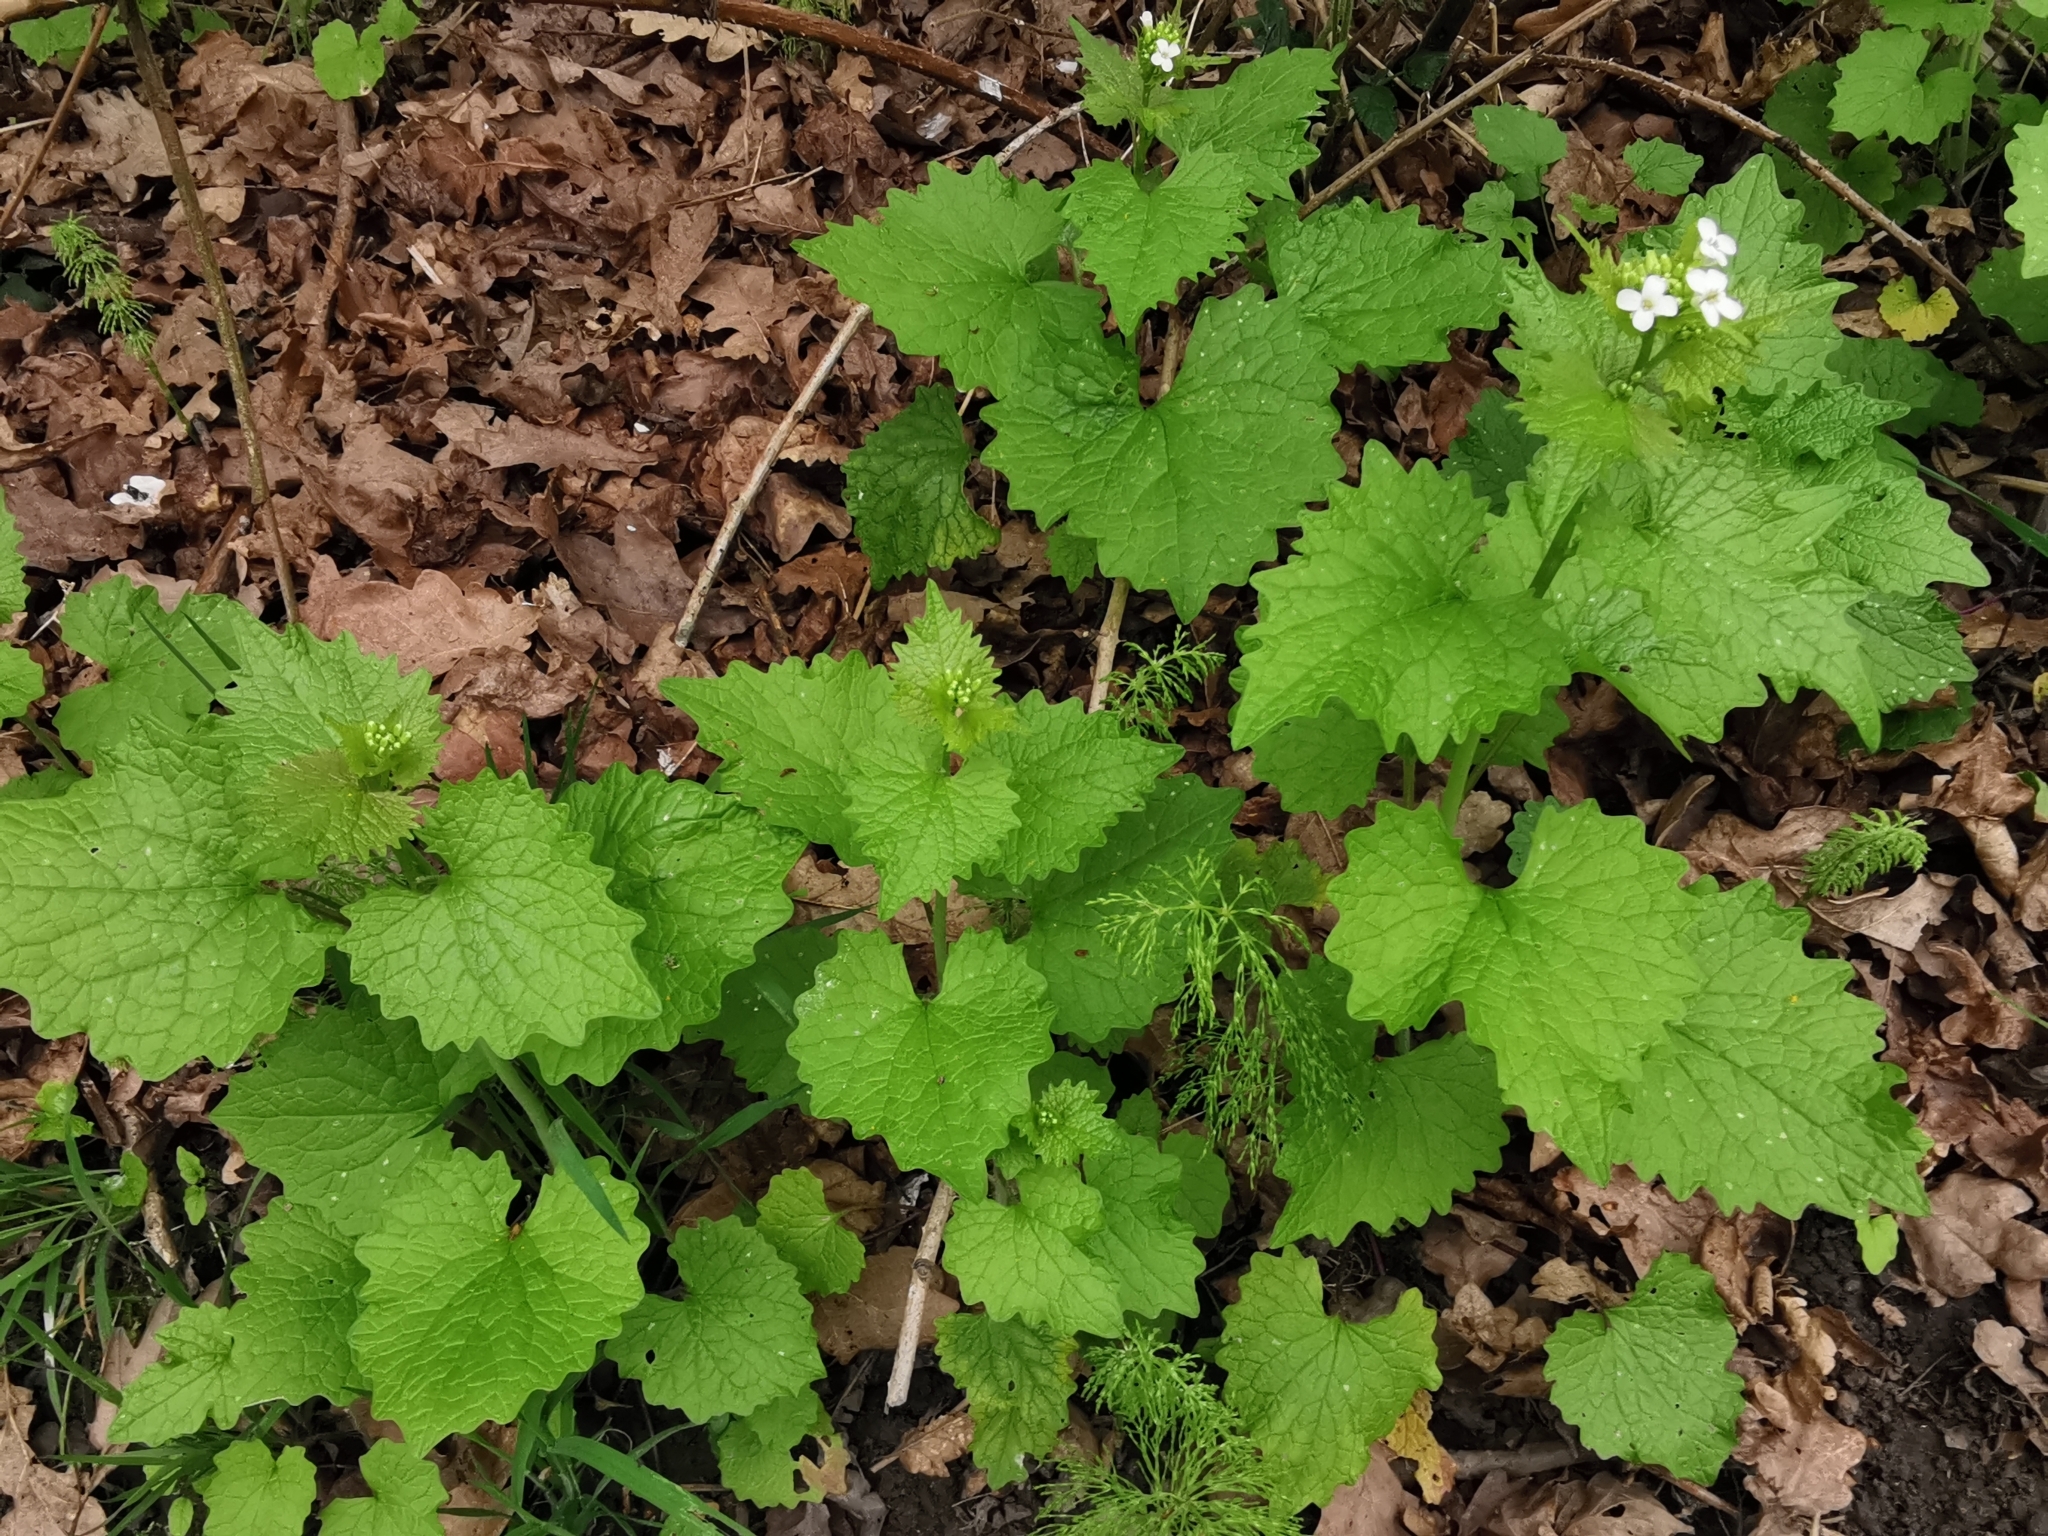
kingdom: Plantae
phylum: Tracheophyta
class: Magnoliopsida
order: Brassicales
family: Brassicaceae
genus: Alliaria
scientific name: Alliaria petiolata
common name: Garlic mustard
